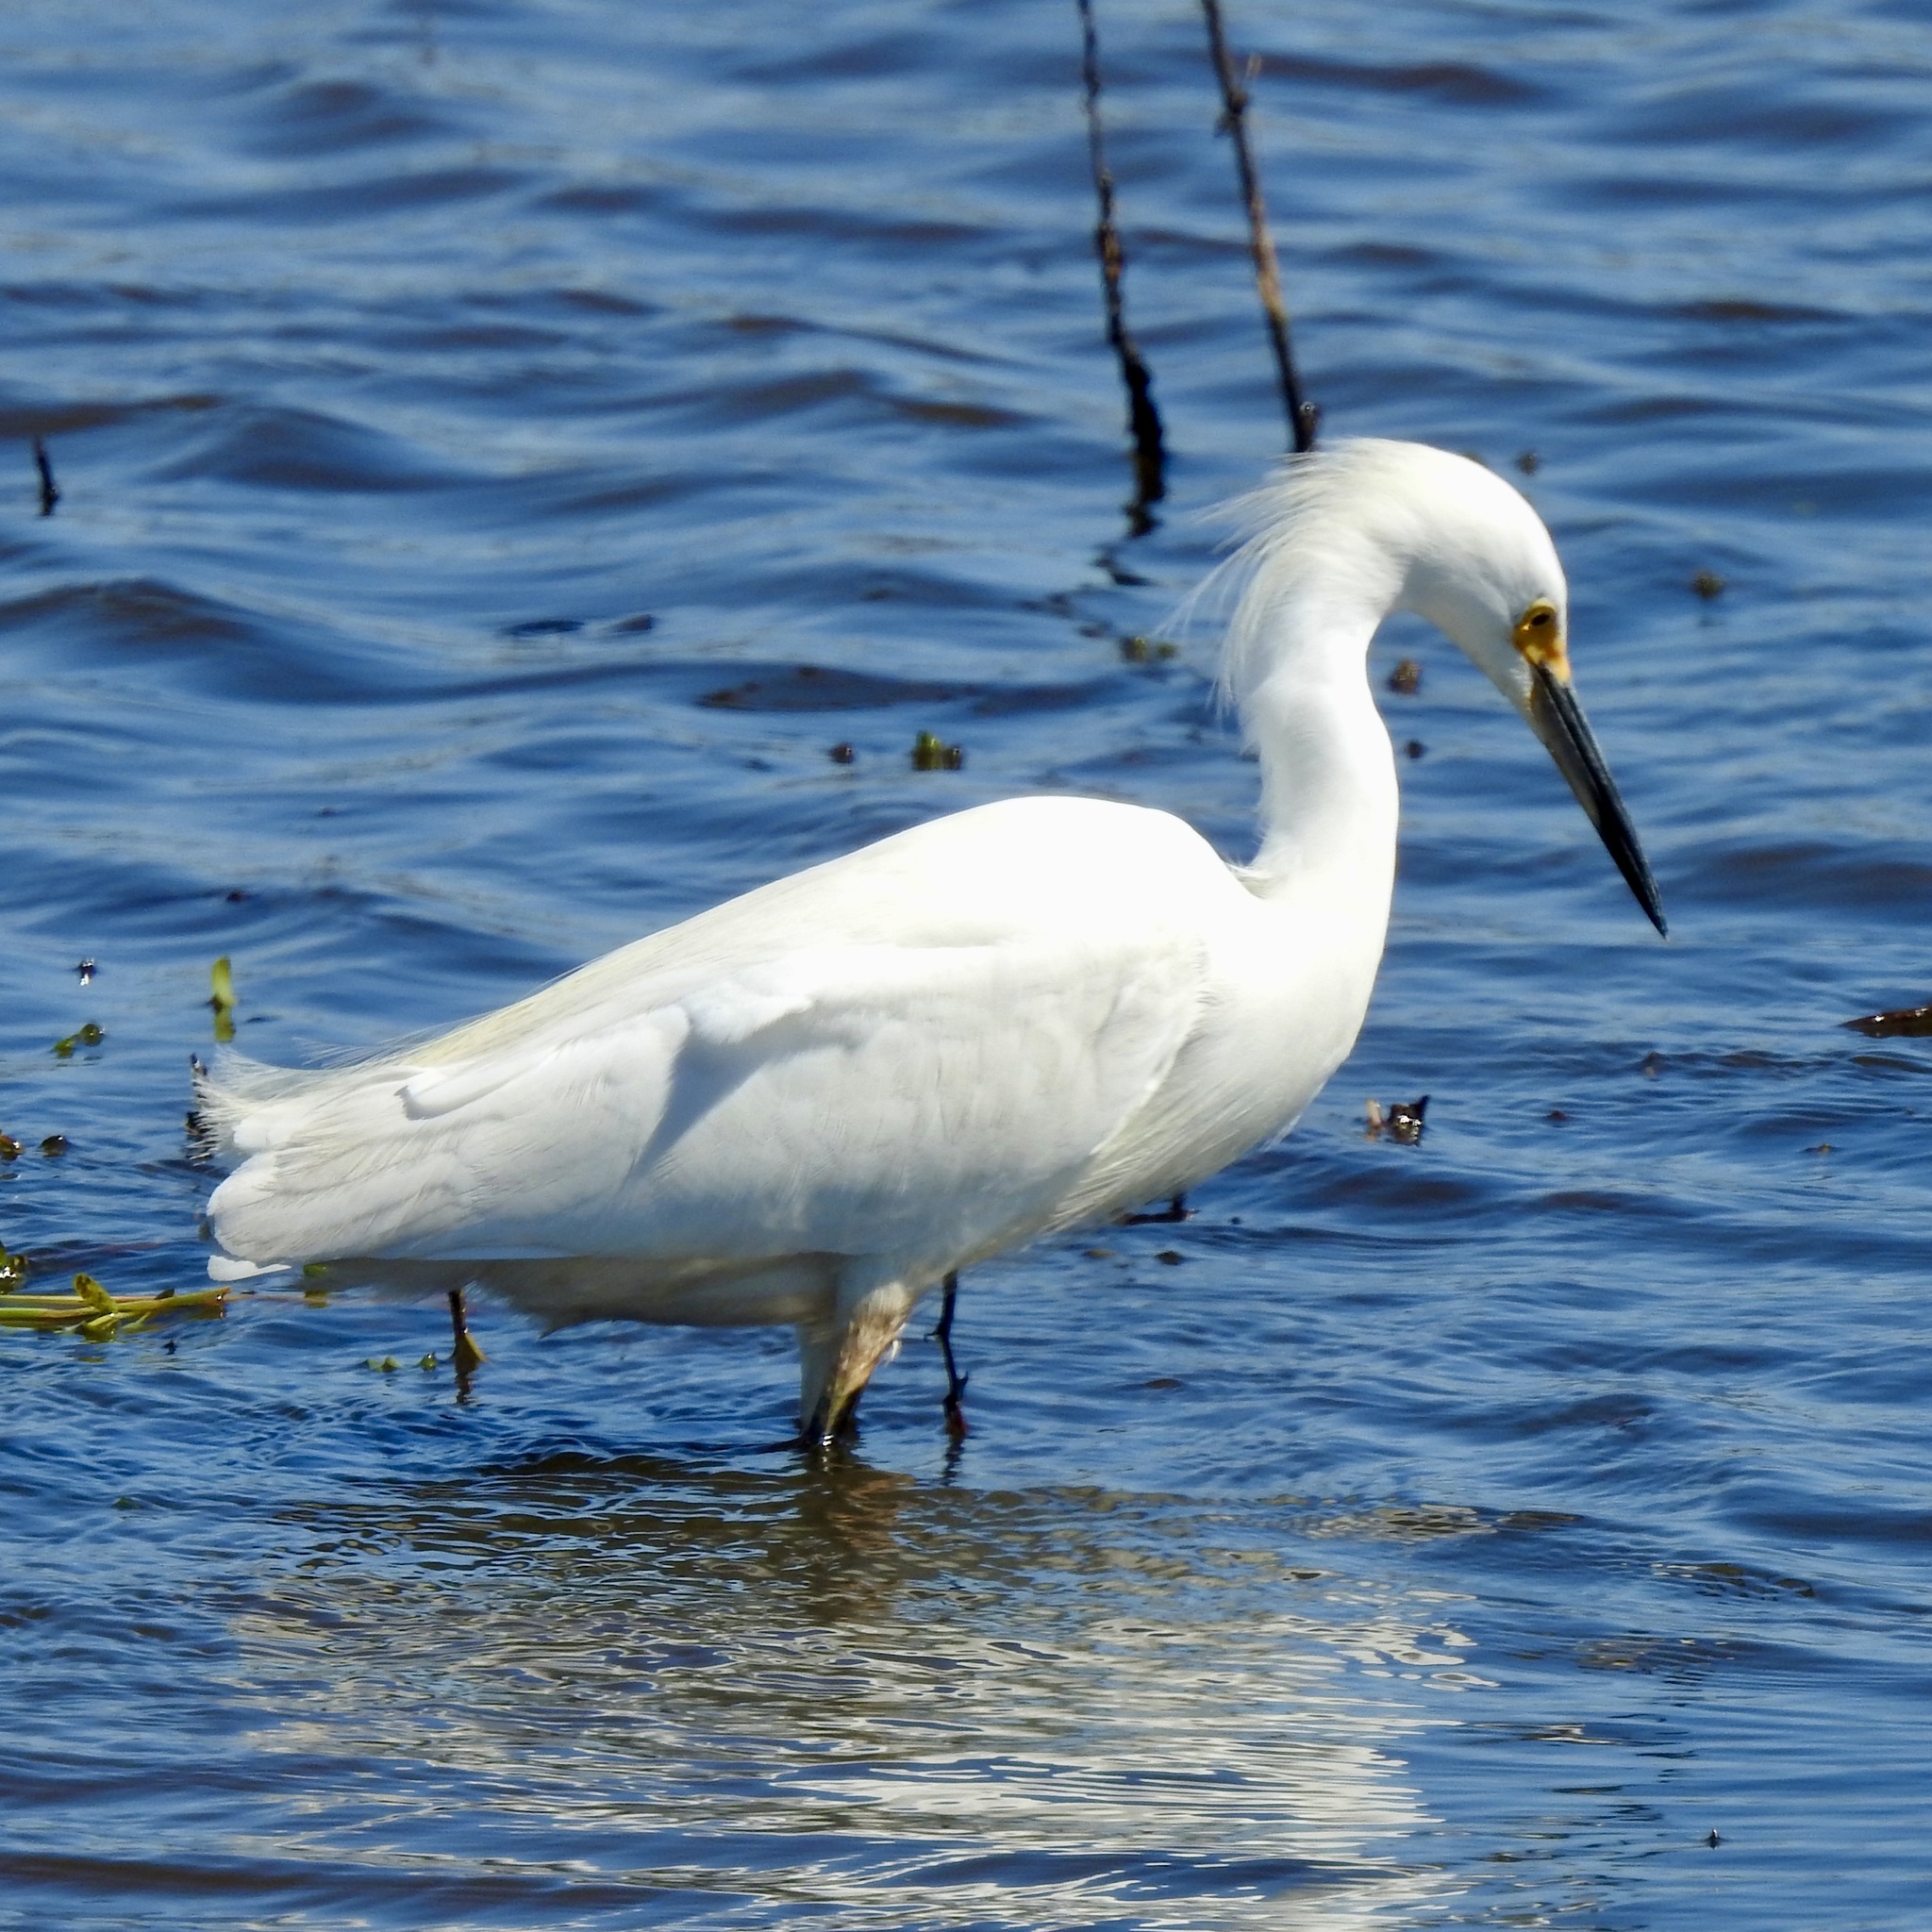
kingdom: Animalia
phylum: Chordata
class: Aves
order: Pelecaniformes
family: Ardeidae
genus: Egretta
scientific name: Egretta thula
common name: Snowy egret
